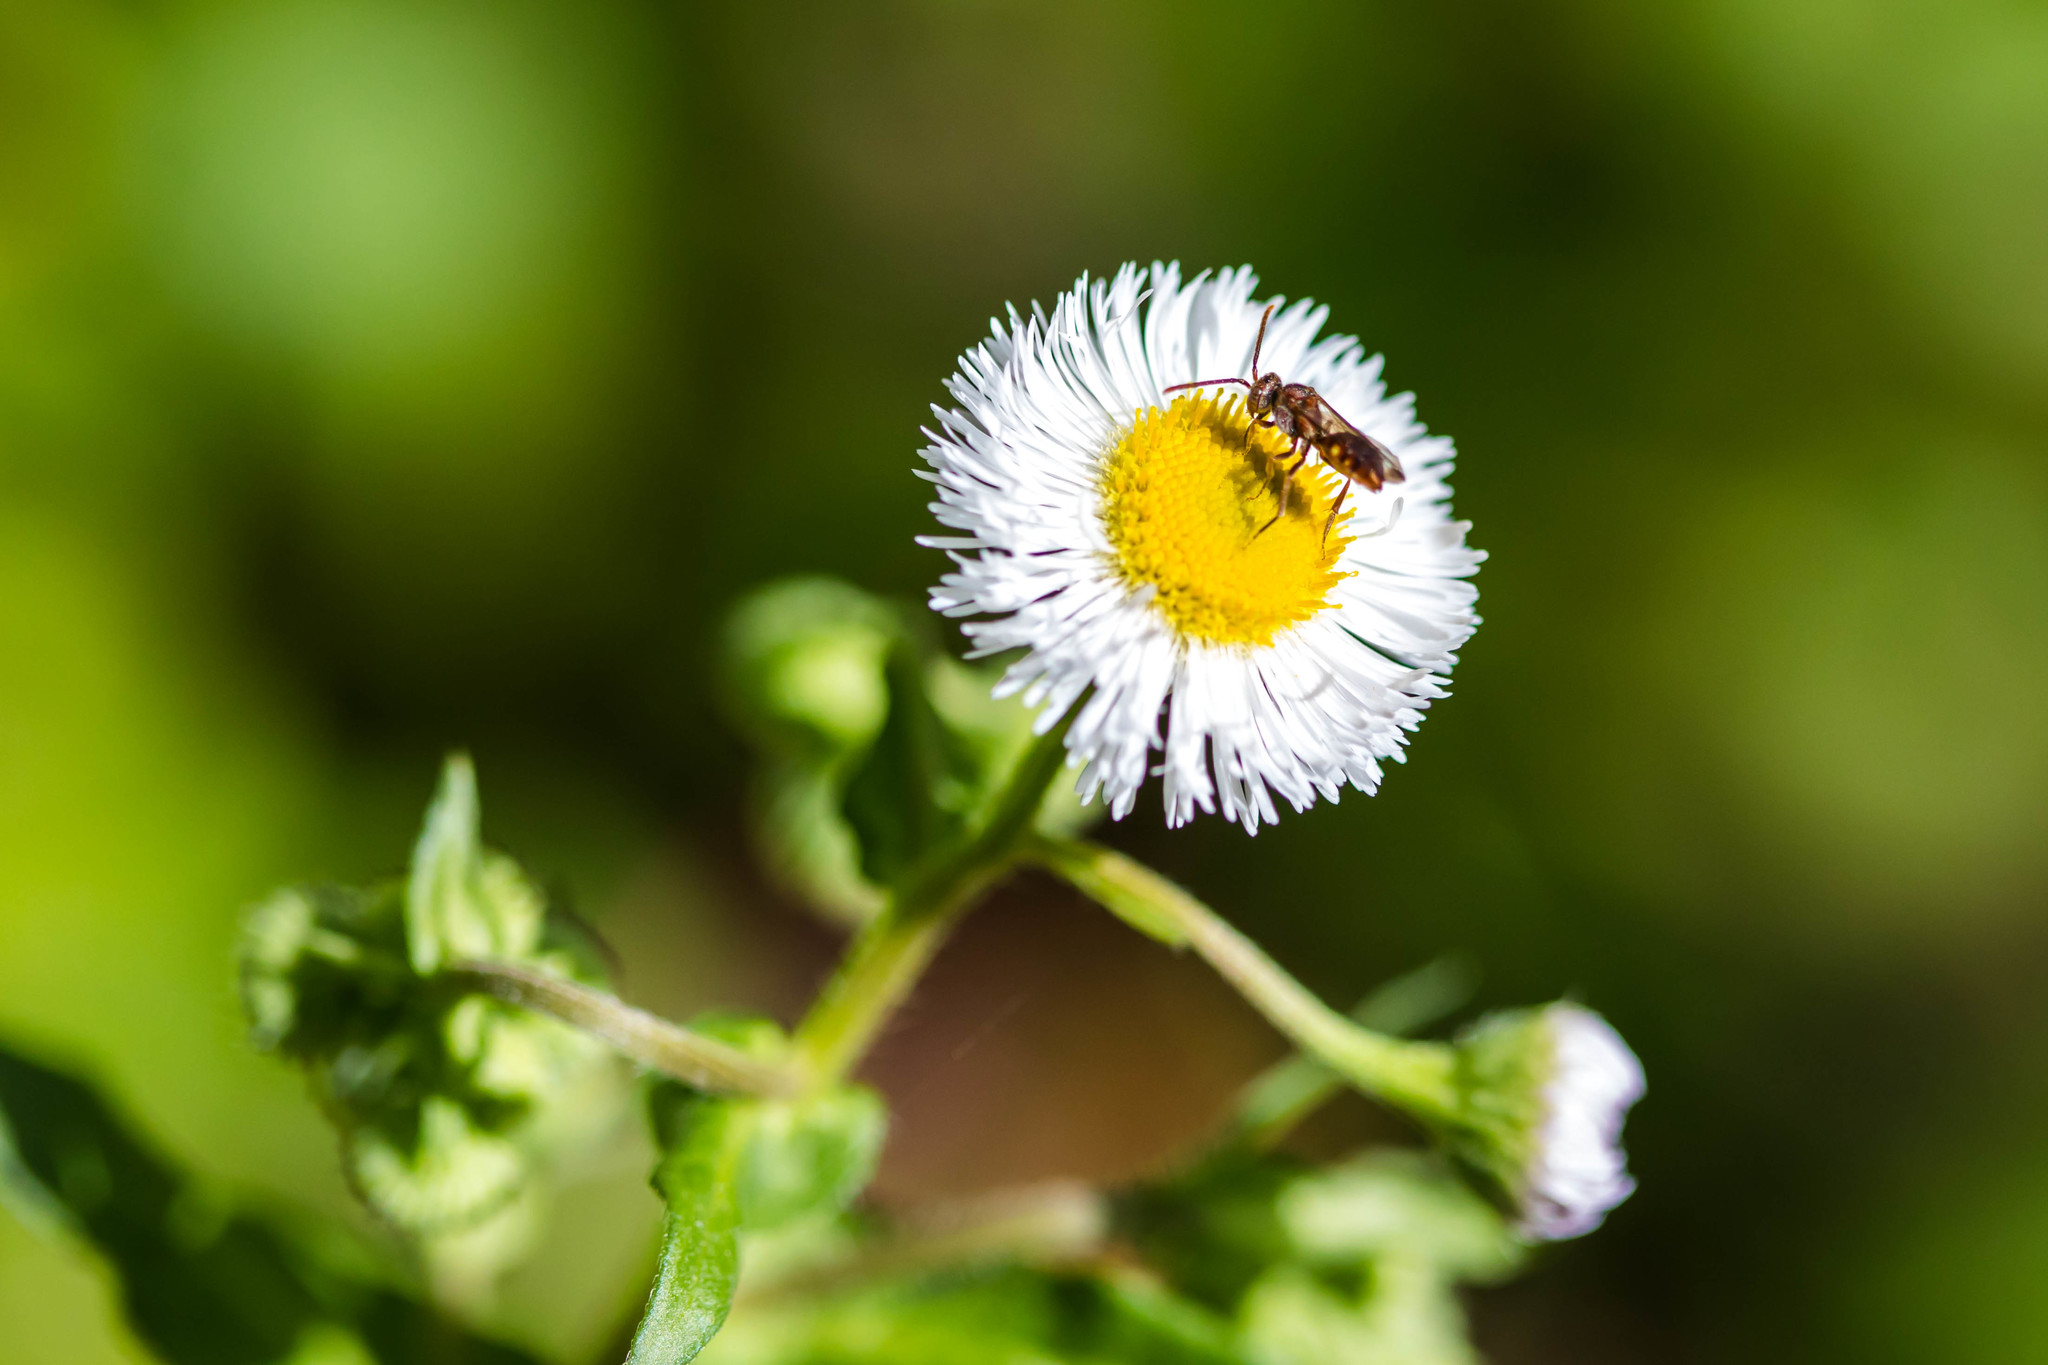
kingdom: Animalia
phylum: Arthropoda
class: Insecta
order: Hymenoptera
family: Apidae
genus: Nomada
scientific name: Nomada
